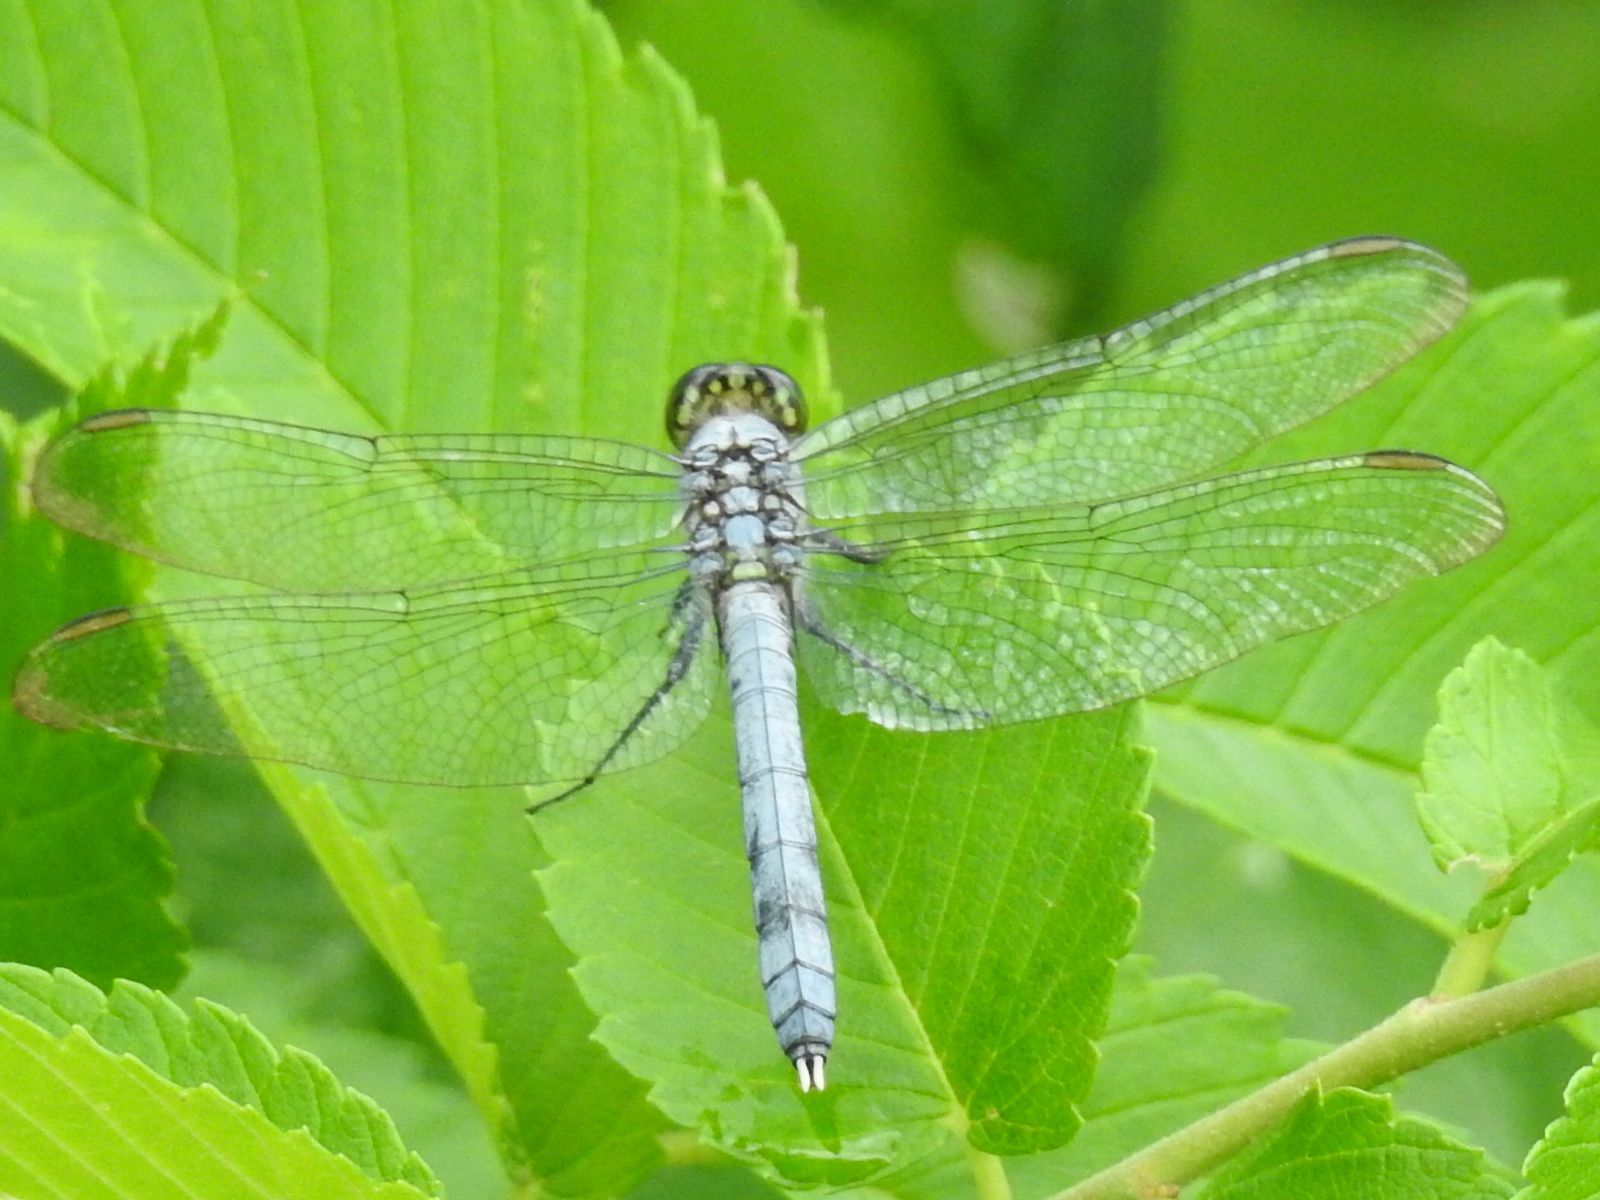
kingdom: Animalia
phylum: Arthropoda
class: Insecta
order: Odonata
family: Libellulidae
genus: Erythemis
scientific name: Erythemis simplicicollis
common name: Eastern pondhawk
